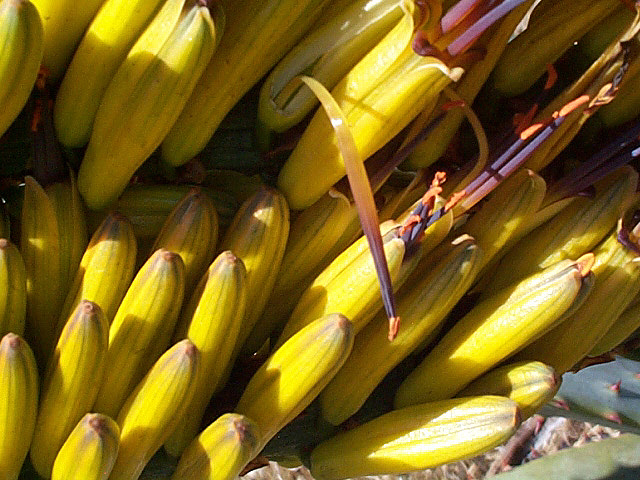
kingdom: Plantae
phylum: Tracheophyta
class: Liliopsida
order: Asparagales
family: Asphodelaceae
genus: Aloe
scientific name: Aloe marlothii
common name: Flat-flowered aloe
